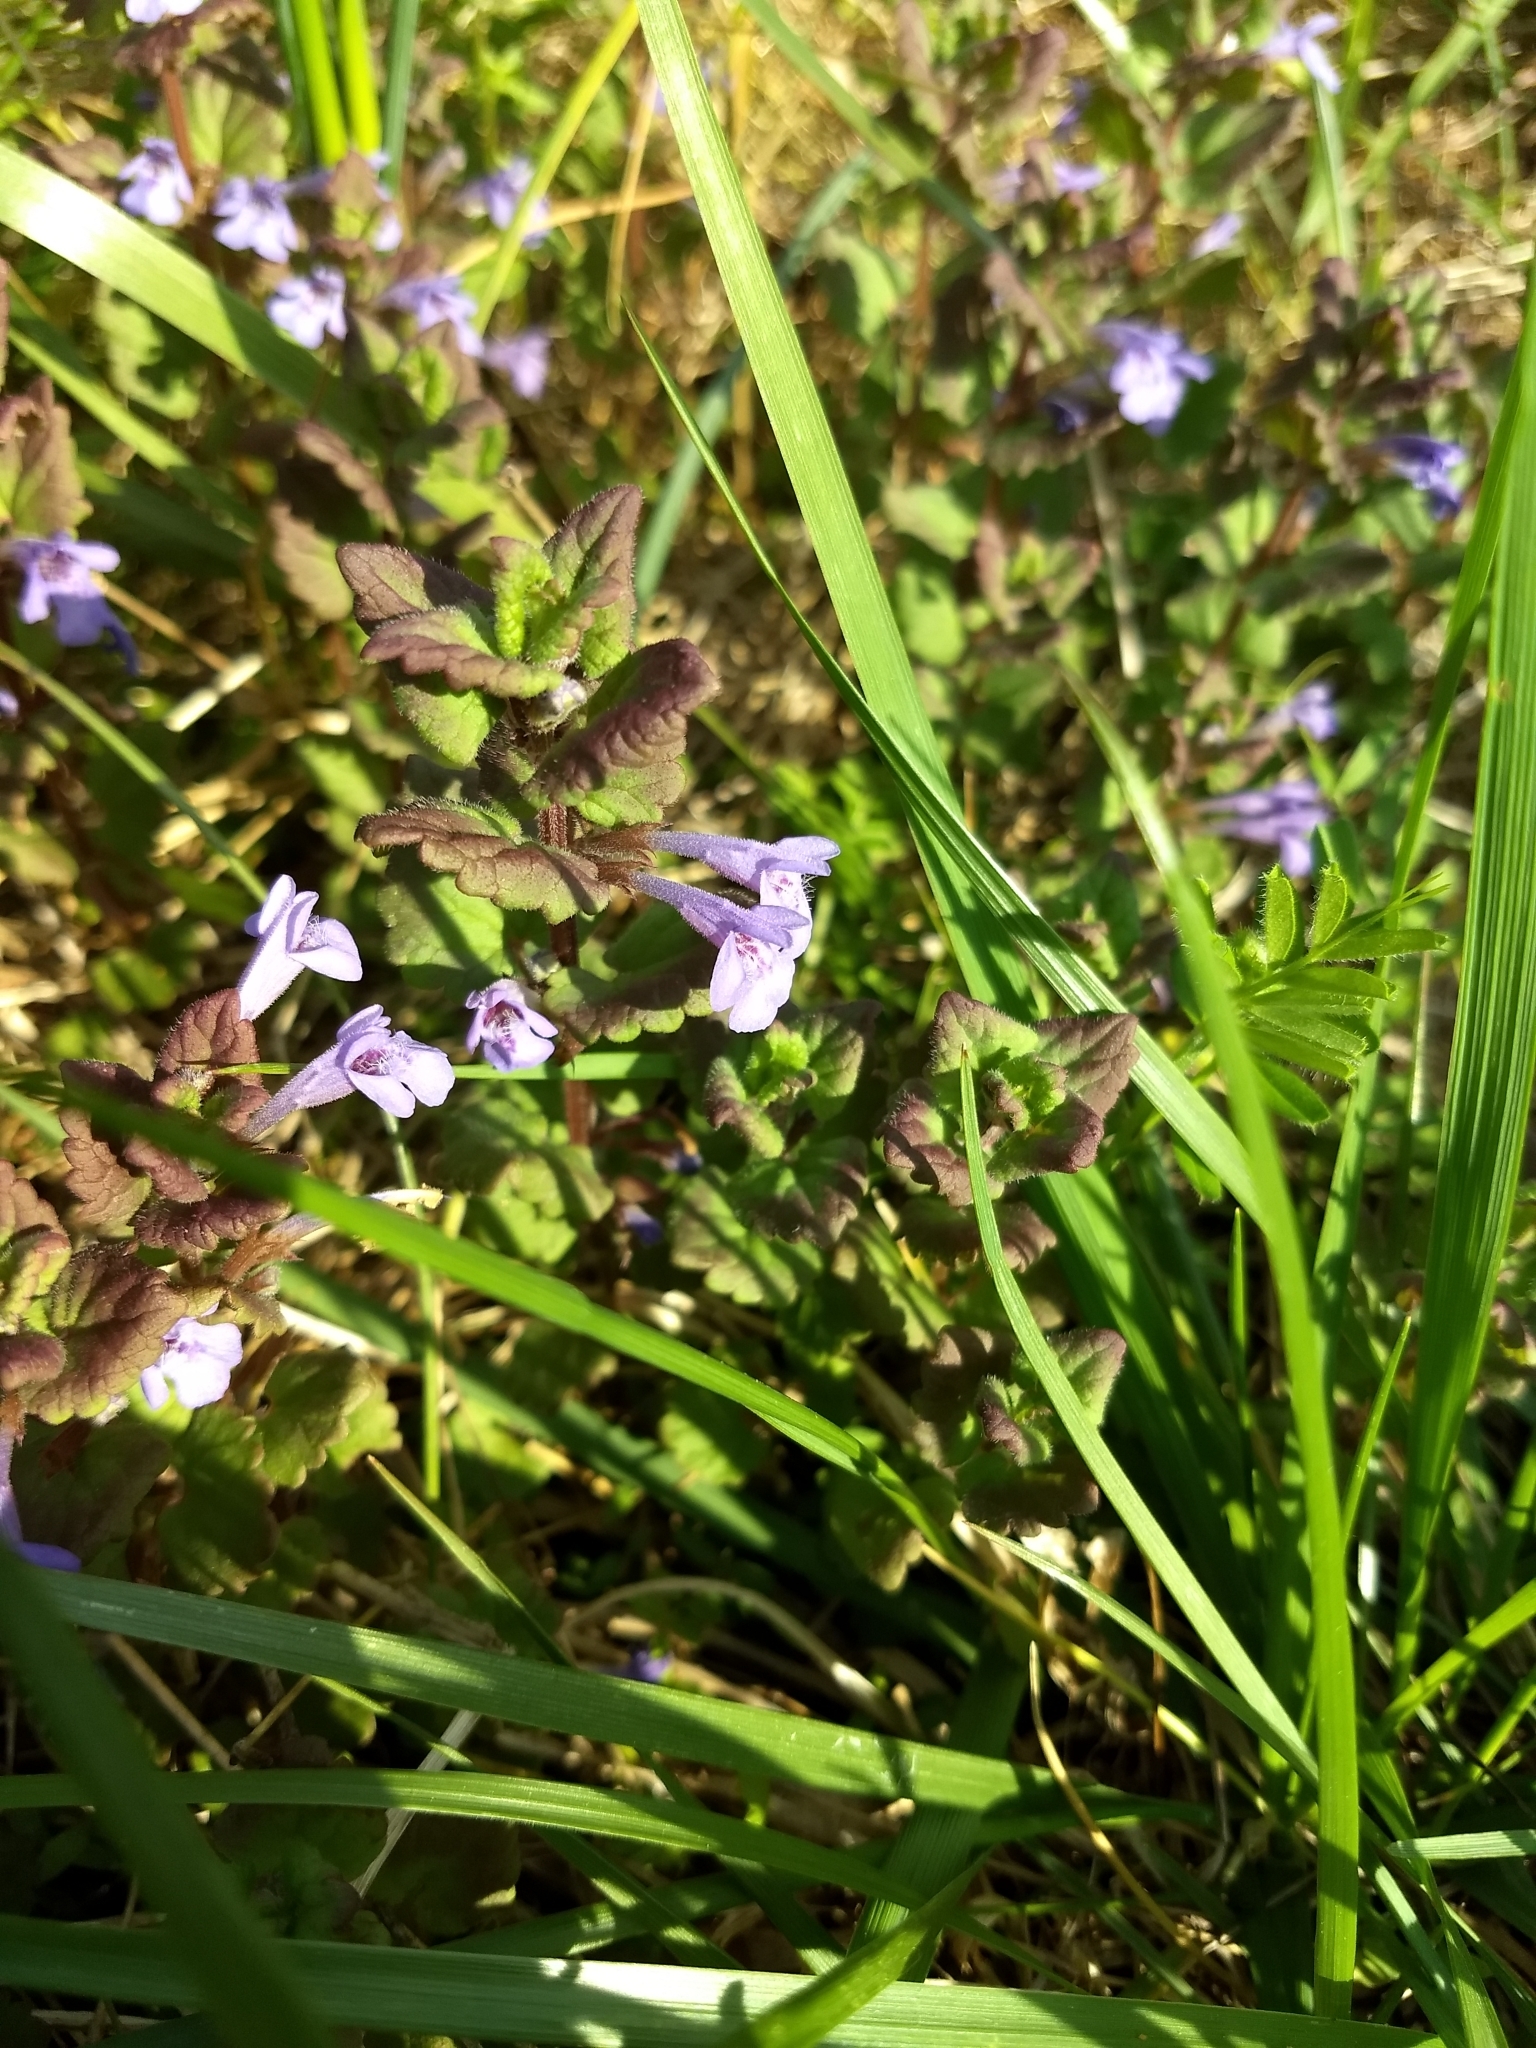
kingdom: Plantae
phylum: Tracheophyta
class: Magnoliopsida
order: Lamiales
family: Lamiaceae
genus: Glechoma
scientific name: Glechoma hederacea
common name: Ground ivy
